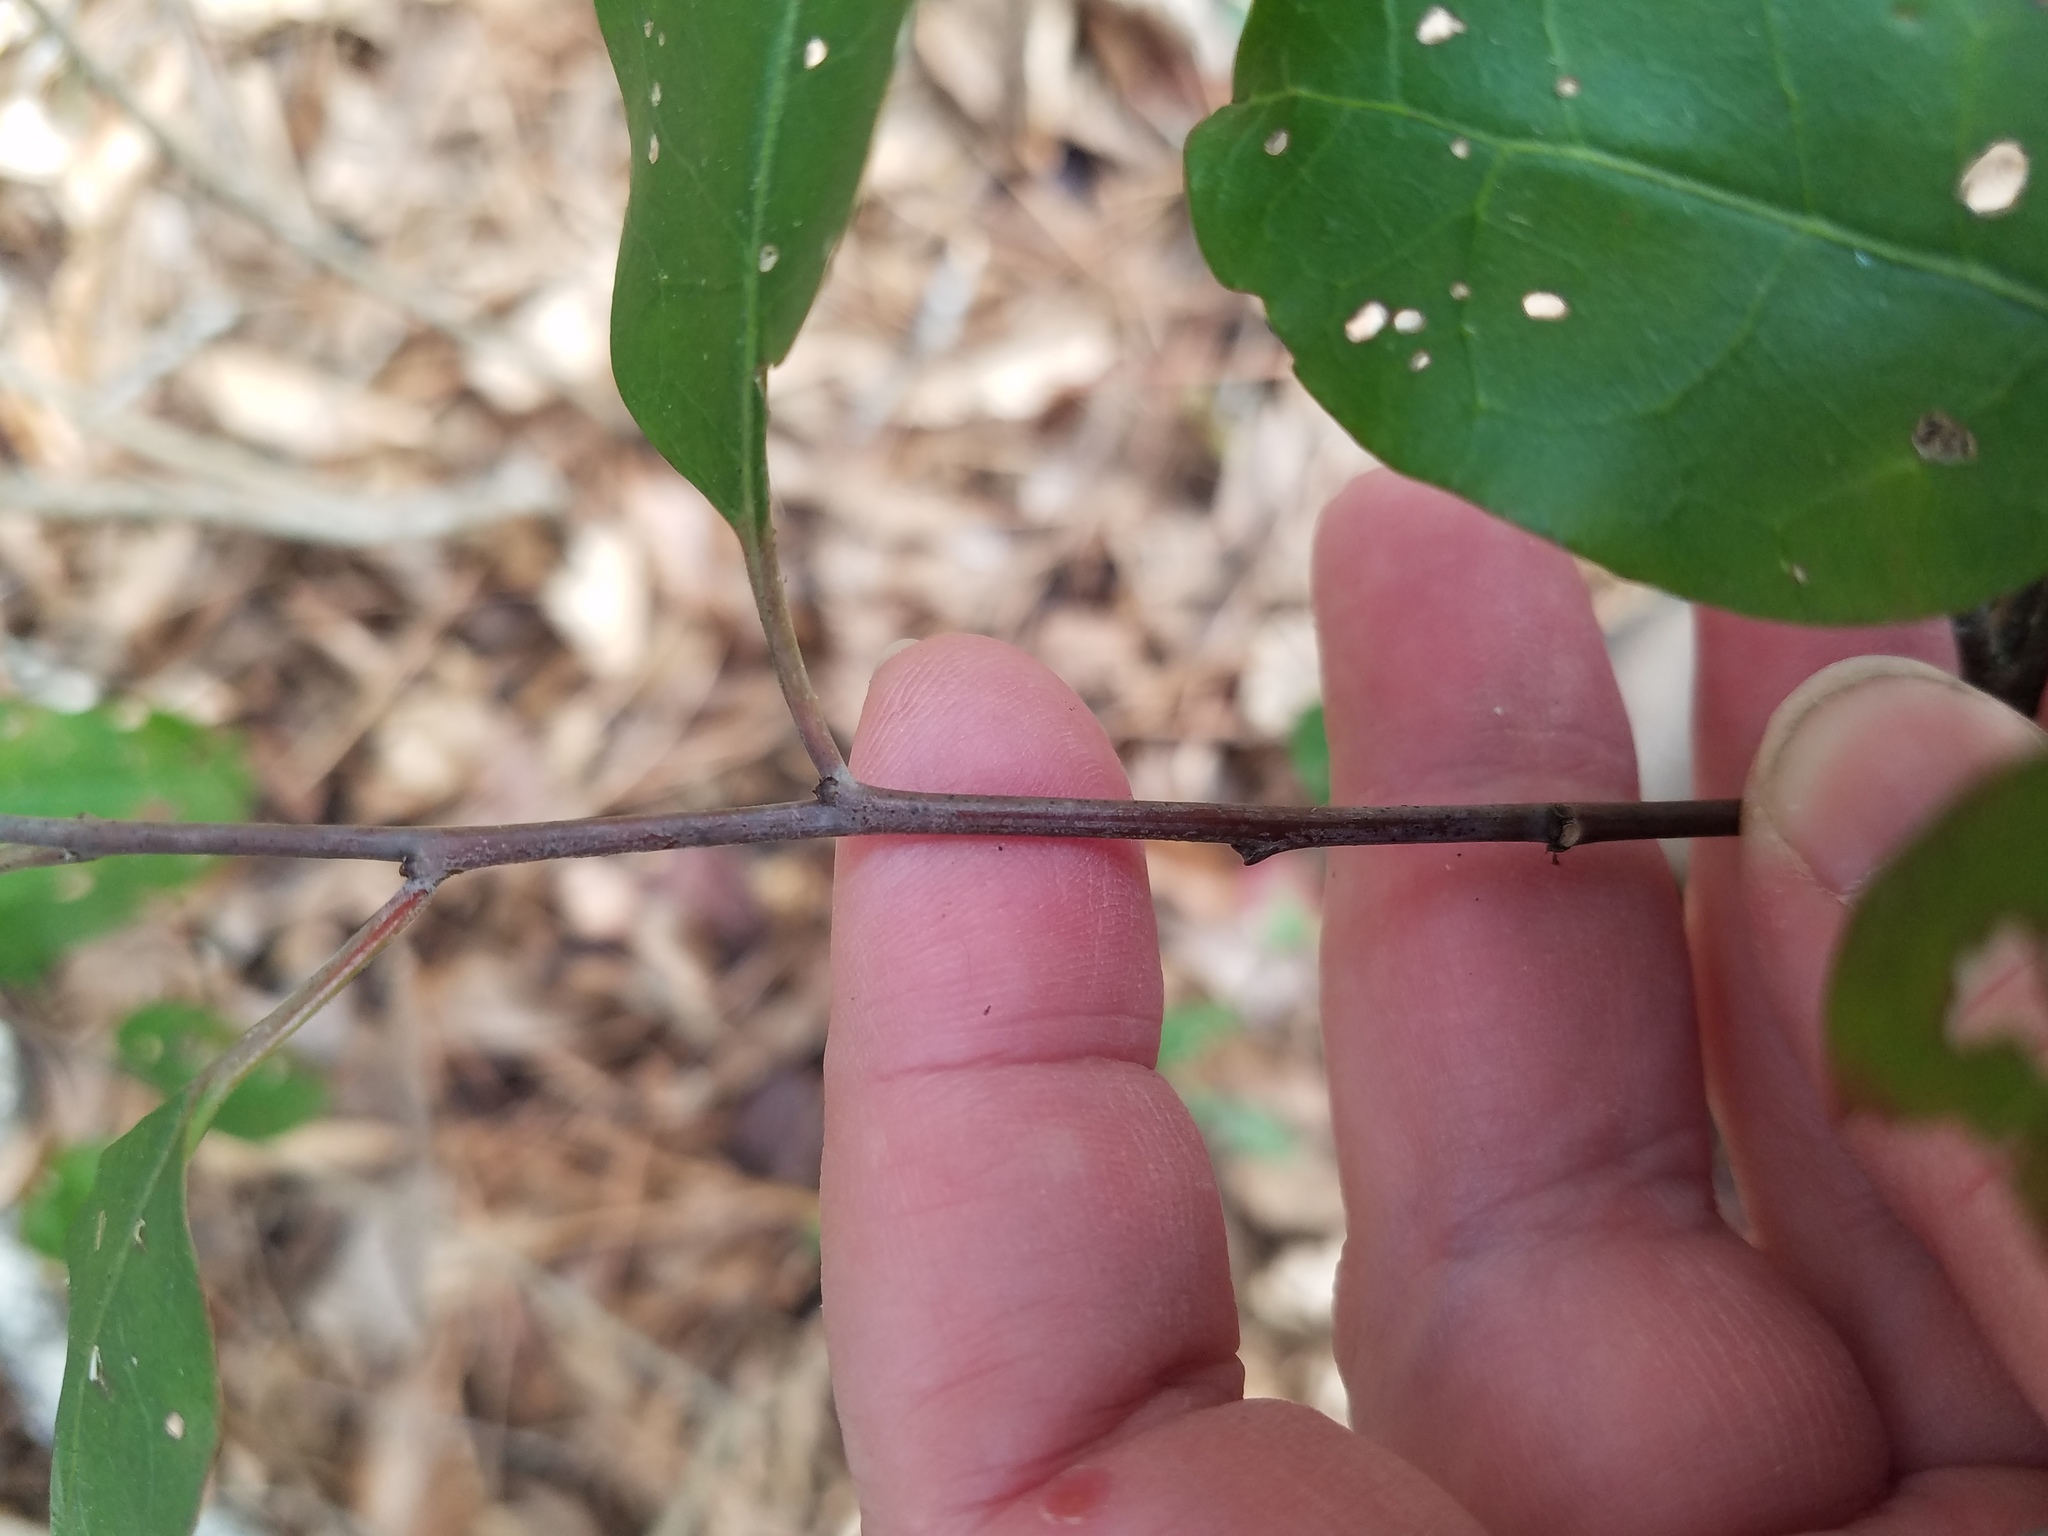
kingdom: Plantae
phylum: Tracheophyta
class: Magnoliopsida
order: Malpighiales
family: Euphorbiaceae
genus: Ditrysinia
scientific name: Ditrysinia fruticosa
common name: Gulf sebastian-bush
